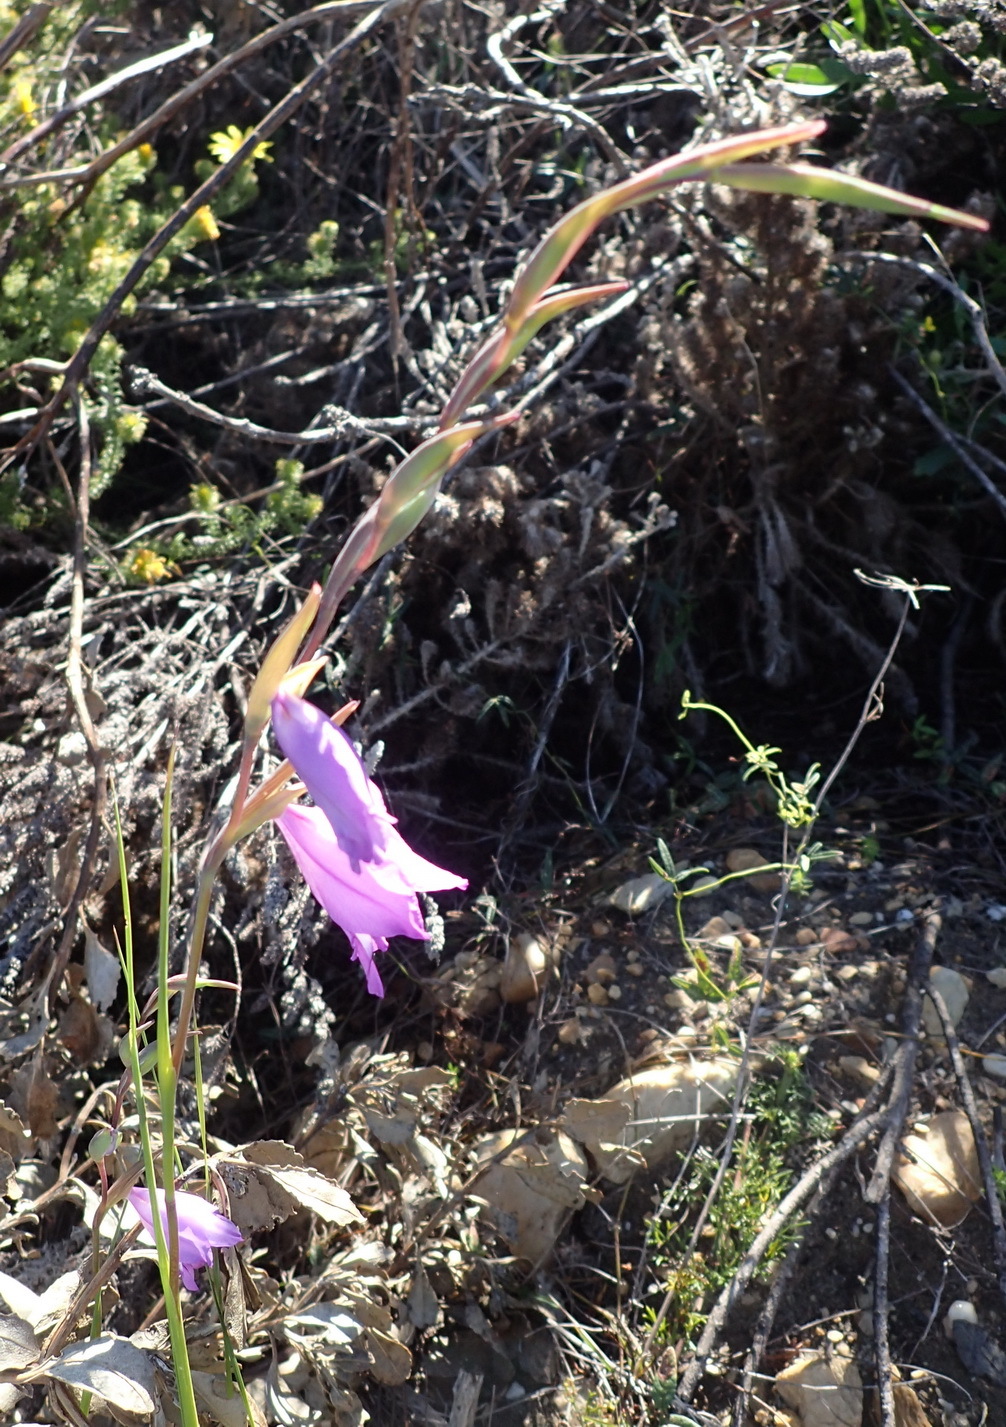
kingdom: Plantae
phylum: Tracheophyta
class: Liliopsida
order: Asparagales
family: Iridaceae
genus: Gladiolus
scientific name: Gladiolus rogersii
